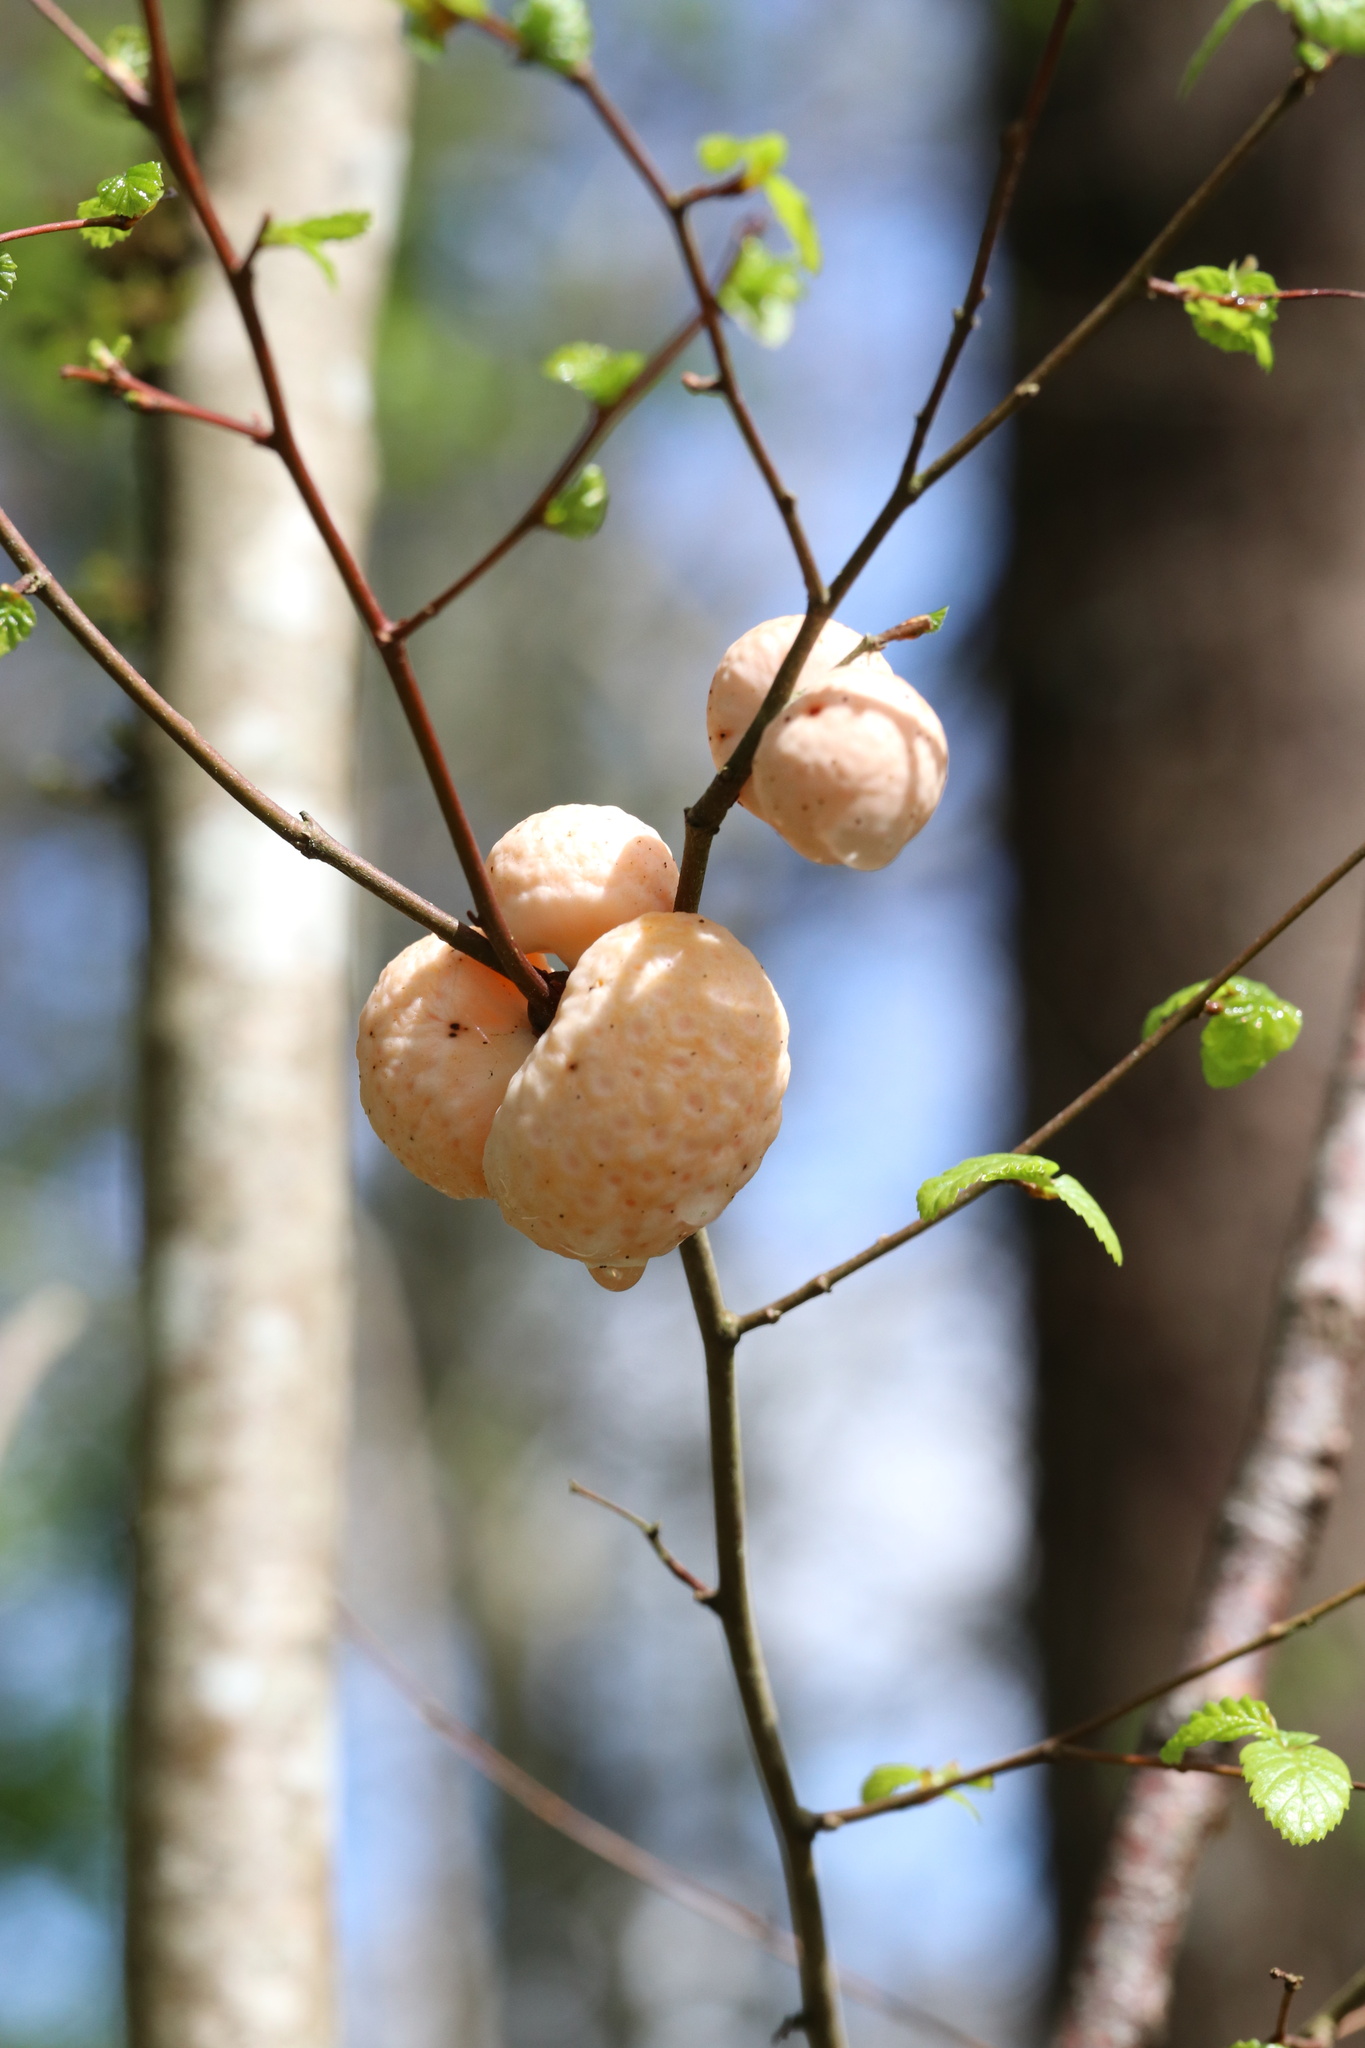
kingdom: Fungi
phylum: Ascomycota
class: Leotiomycetes
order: Cyttariales
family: Cyttariaceae
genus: Cyttaria
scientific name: Cyttaria espinosae
